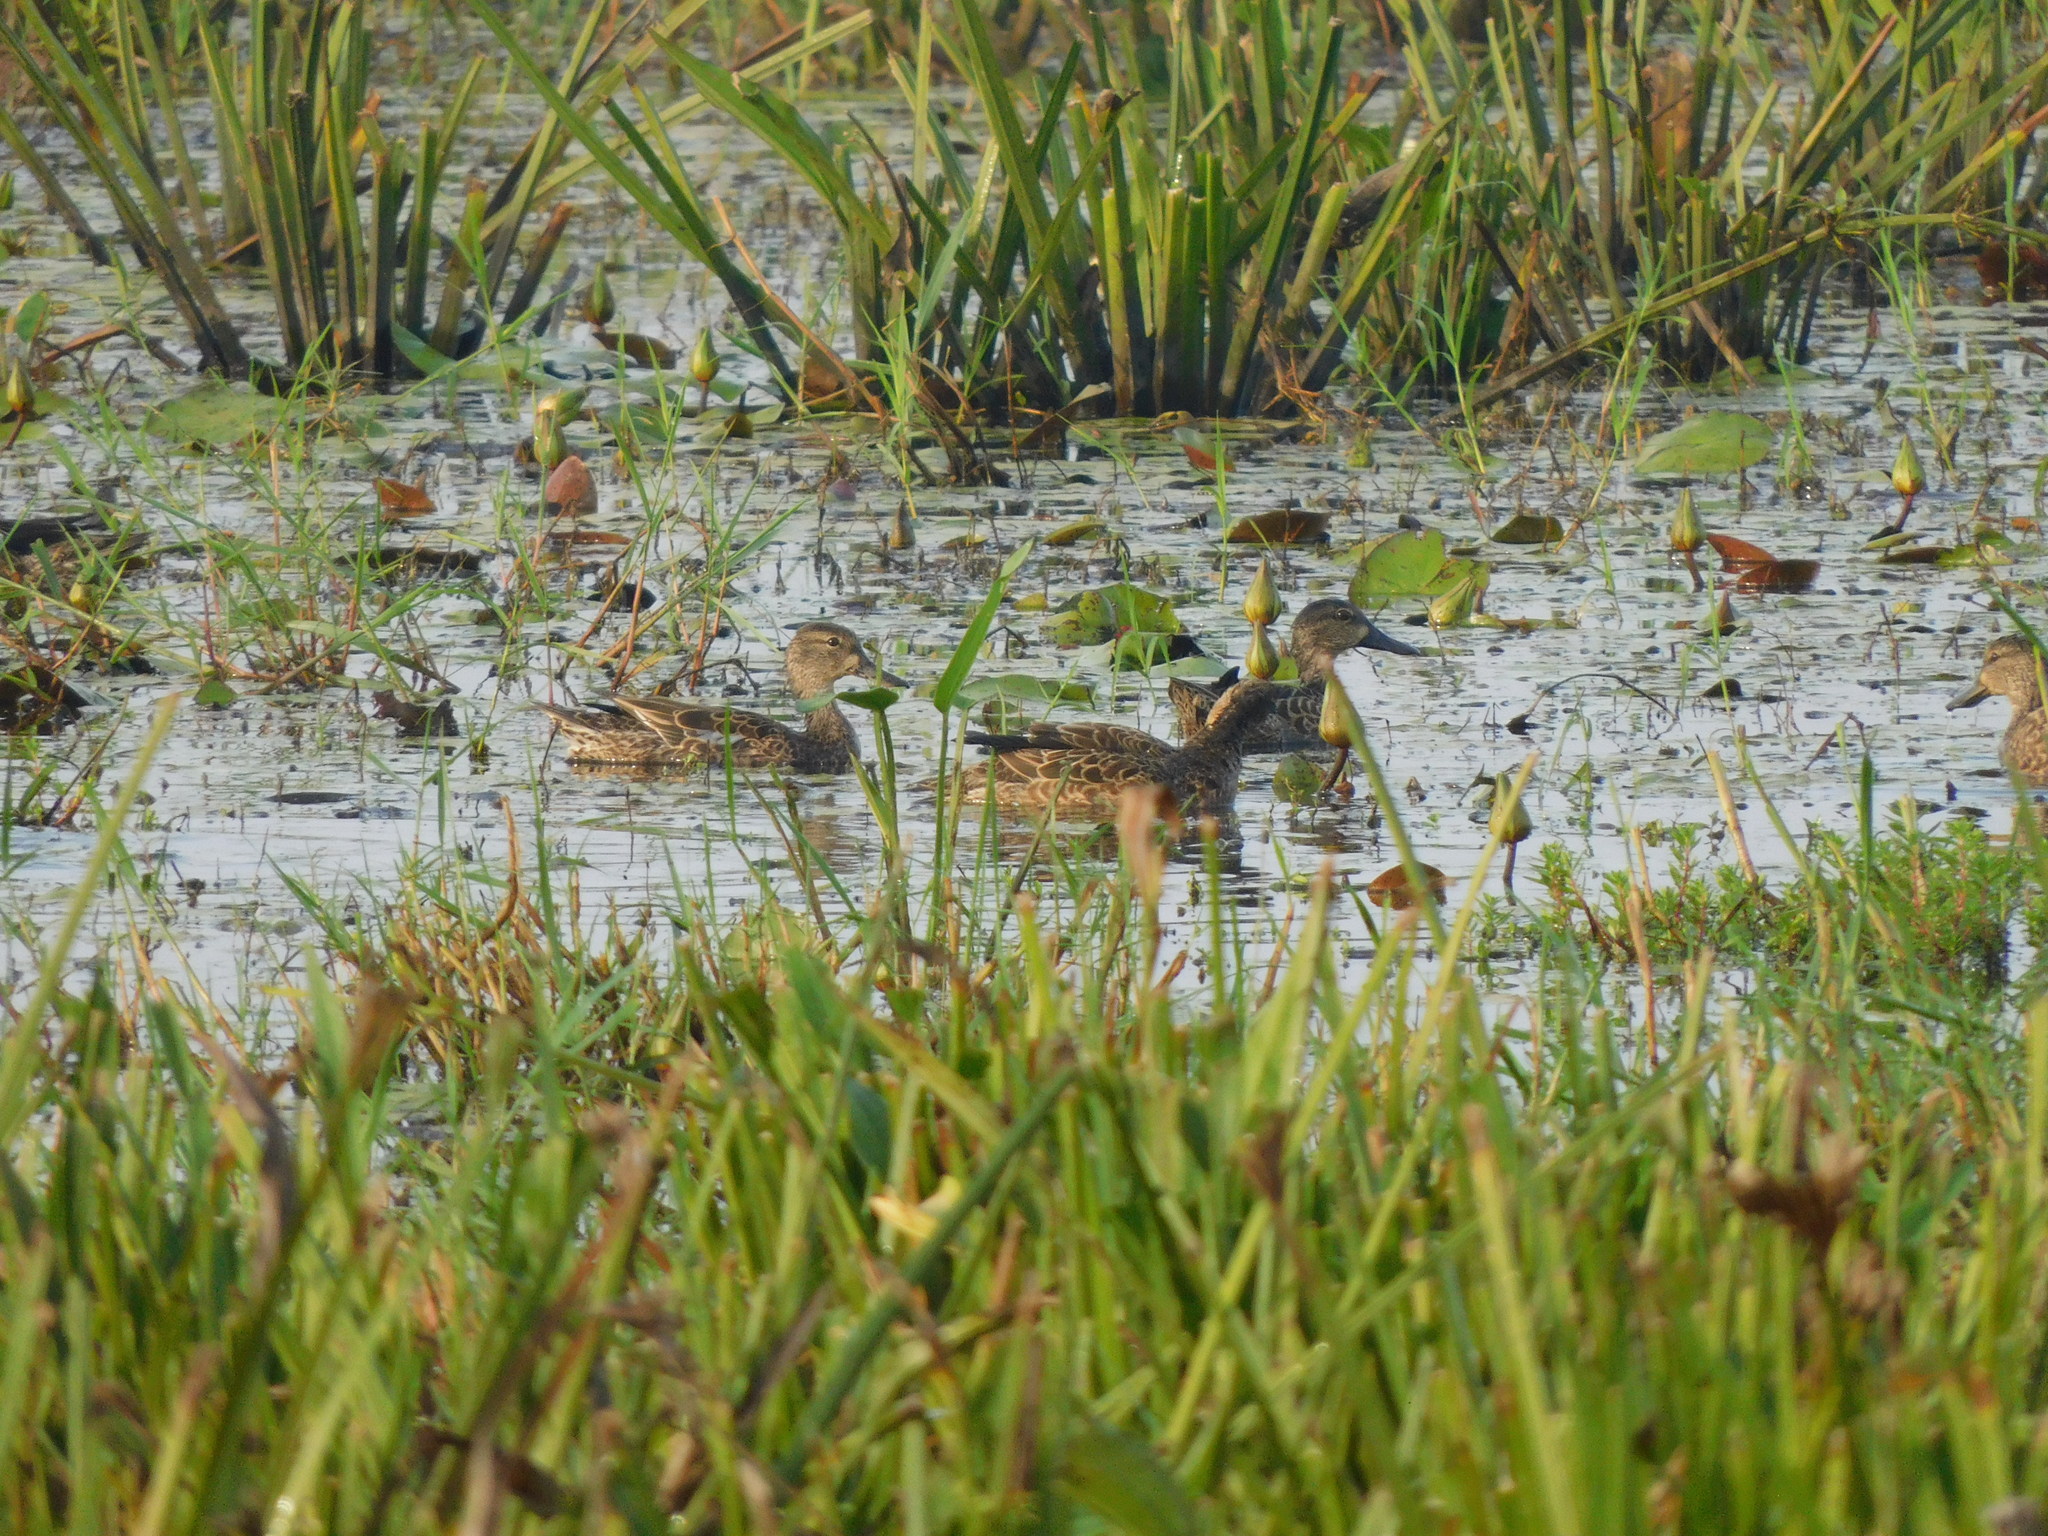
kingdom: Animalia
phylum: Chordata
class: Aves
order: Anseriformes
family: Anatidae
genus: Spatula
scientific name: Spatula discors
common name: Blue-winged teal
